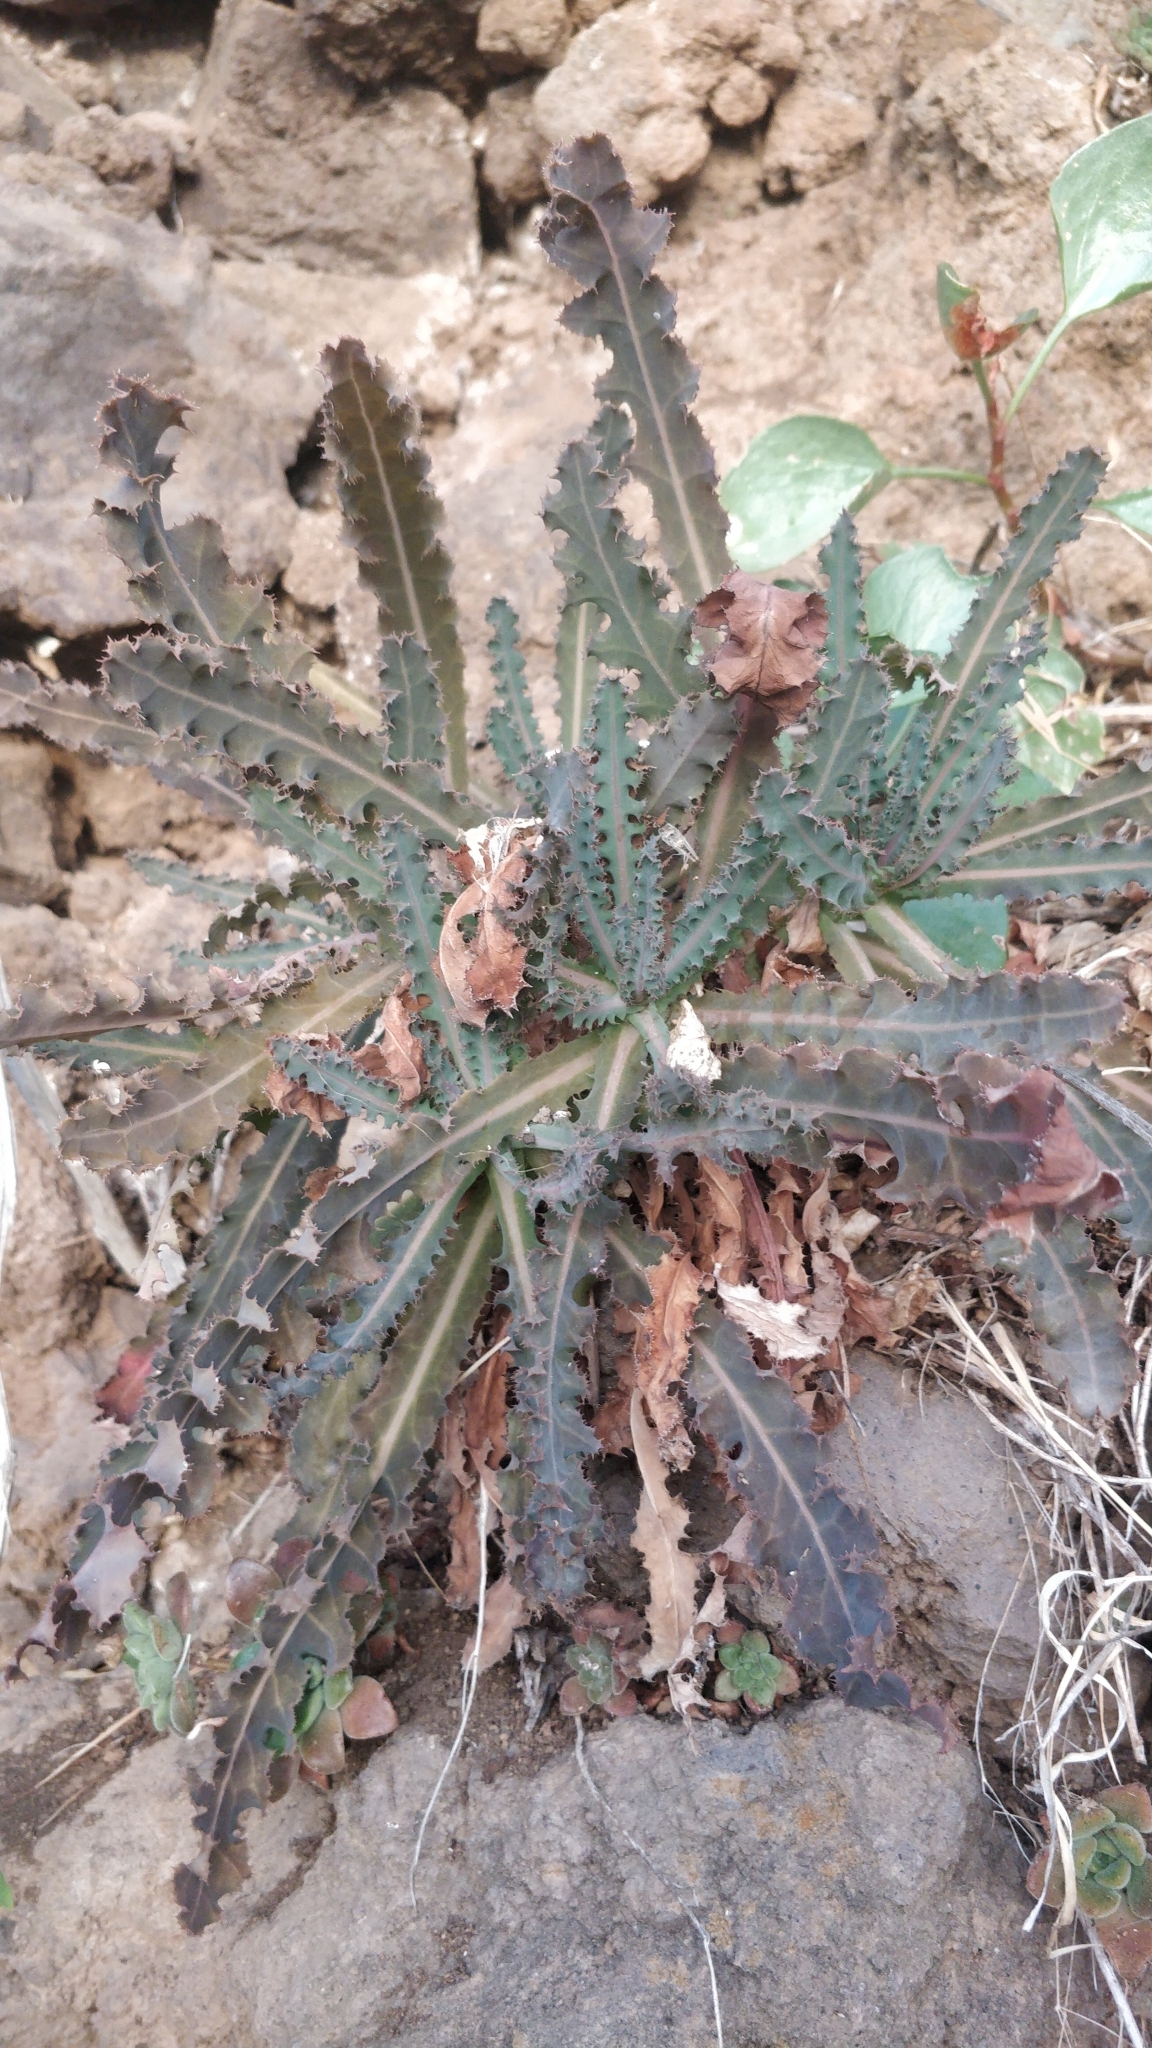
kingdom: Plantae
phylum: Tracheophyta
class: Magnoliopsida
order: Asterales
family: Asteraceae
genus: Reichardia
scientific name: Reichardia ligulata
